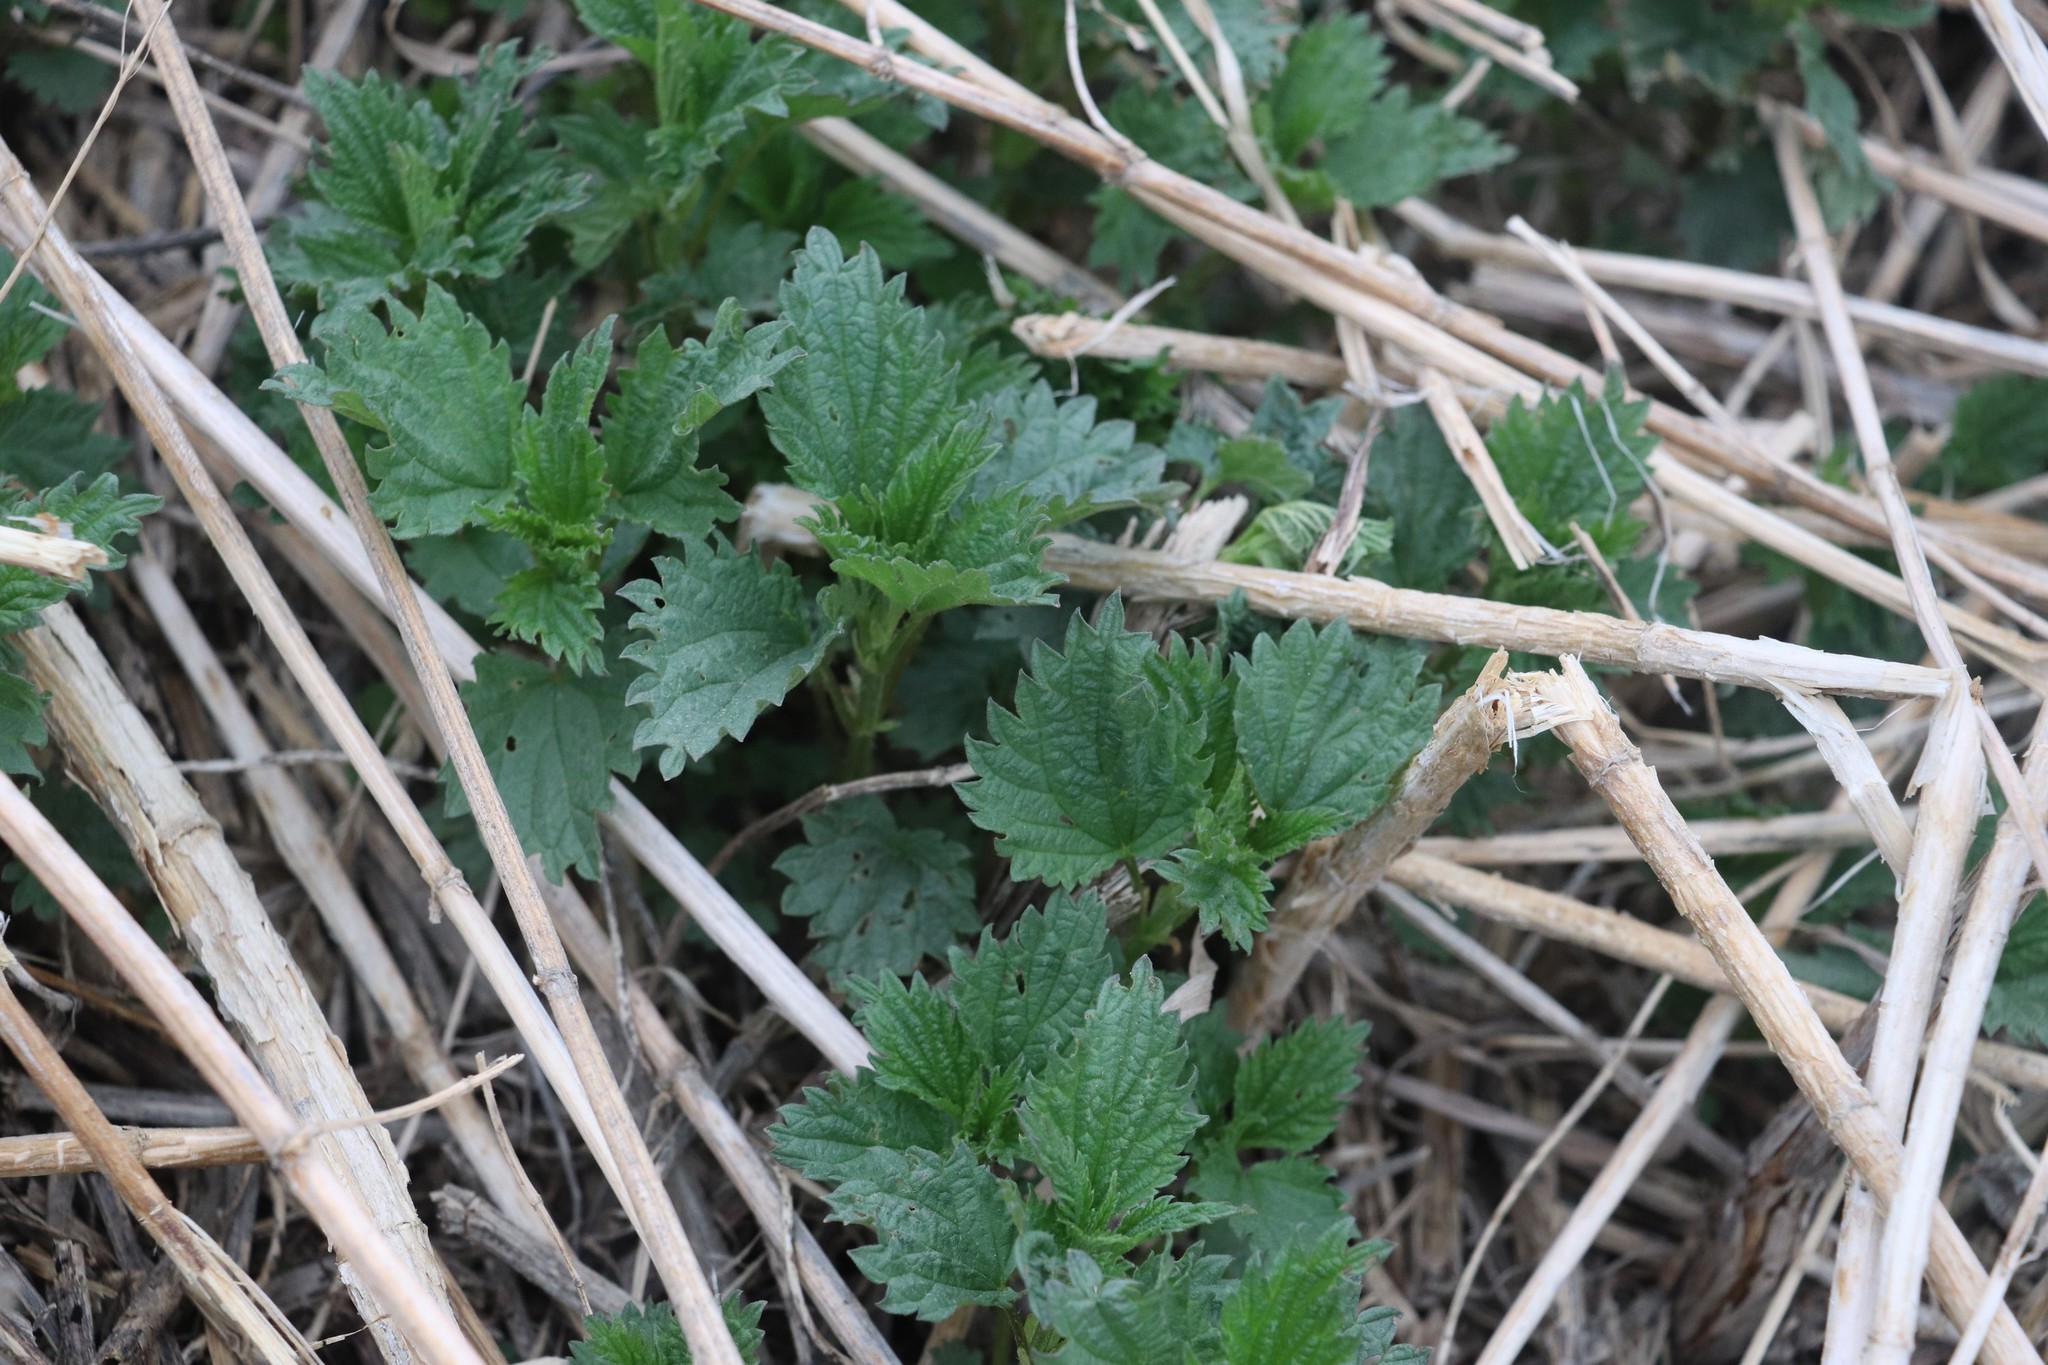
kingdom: Plantae
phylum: Tracheophyta
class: Magnoliopsida
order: Rosales
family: Urticaceae
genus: Urtica
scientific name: Urtica dioica
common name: Common nettle
